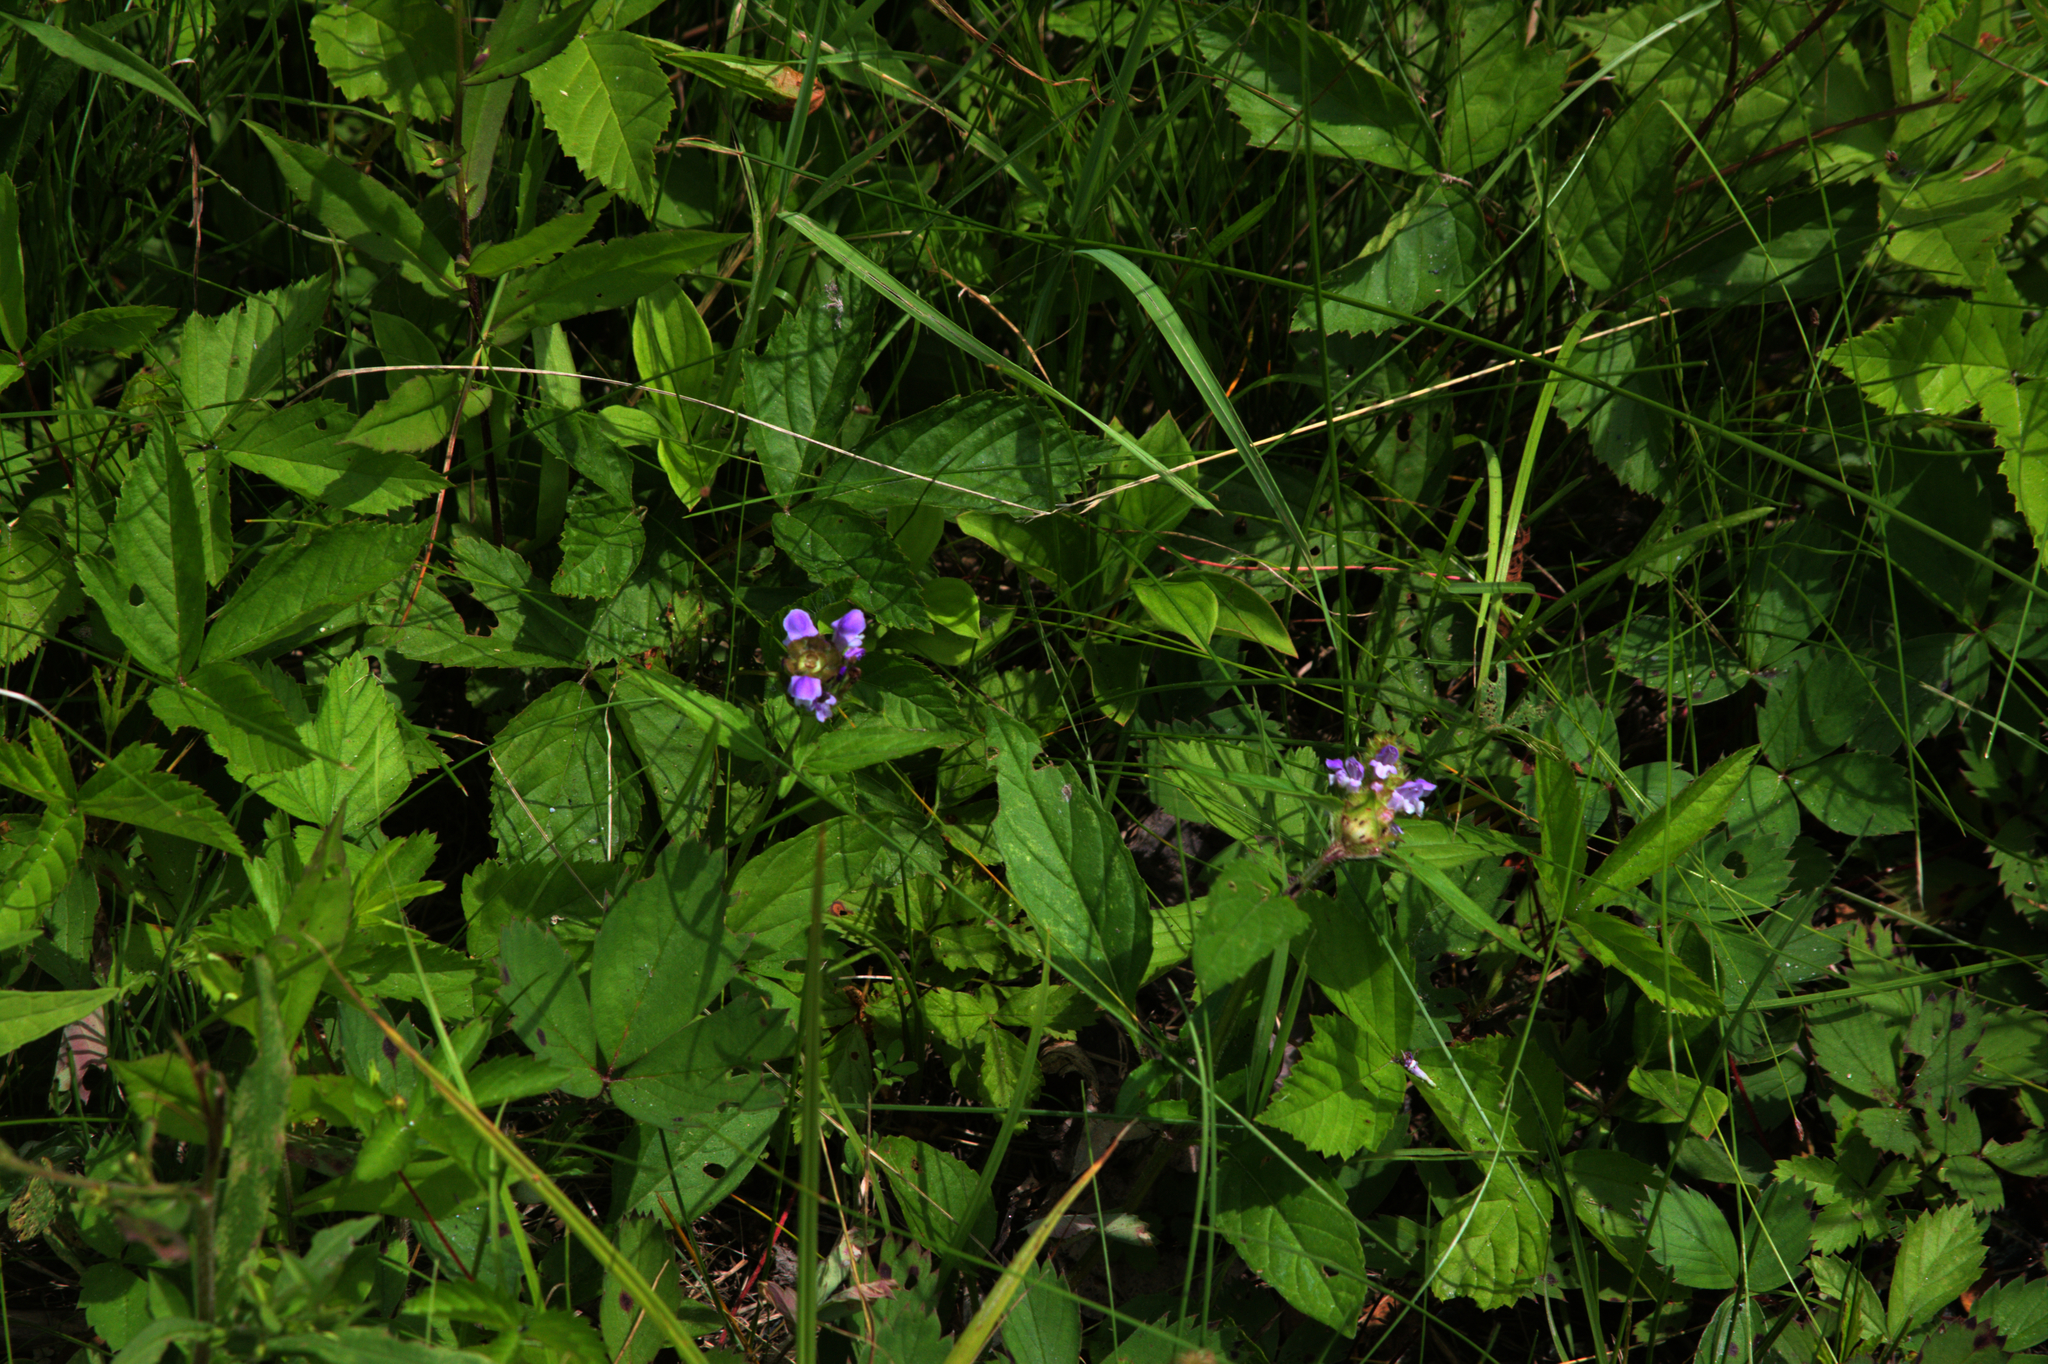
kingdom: Plantae
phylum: Tracheophyta
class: Magnoliopsida
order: Lamiales
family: Lamiaceae
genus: Prunella
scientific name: Prunella vulgaris
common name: Heal-all
